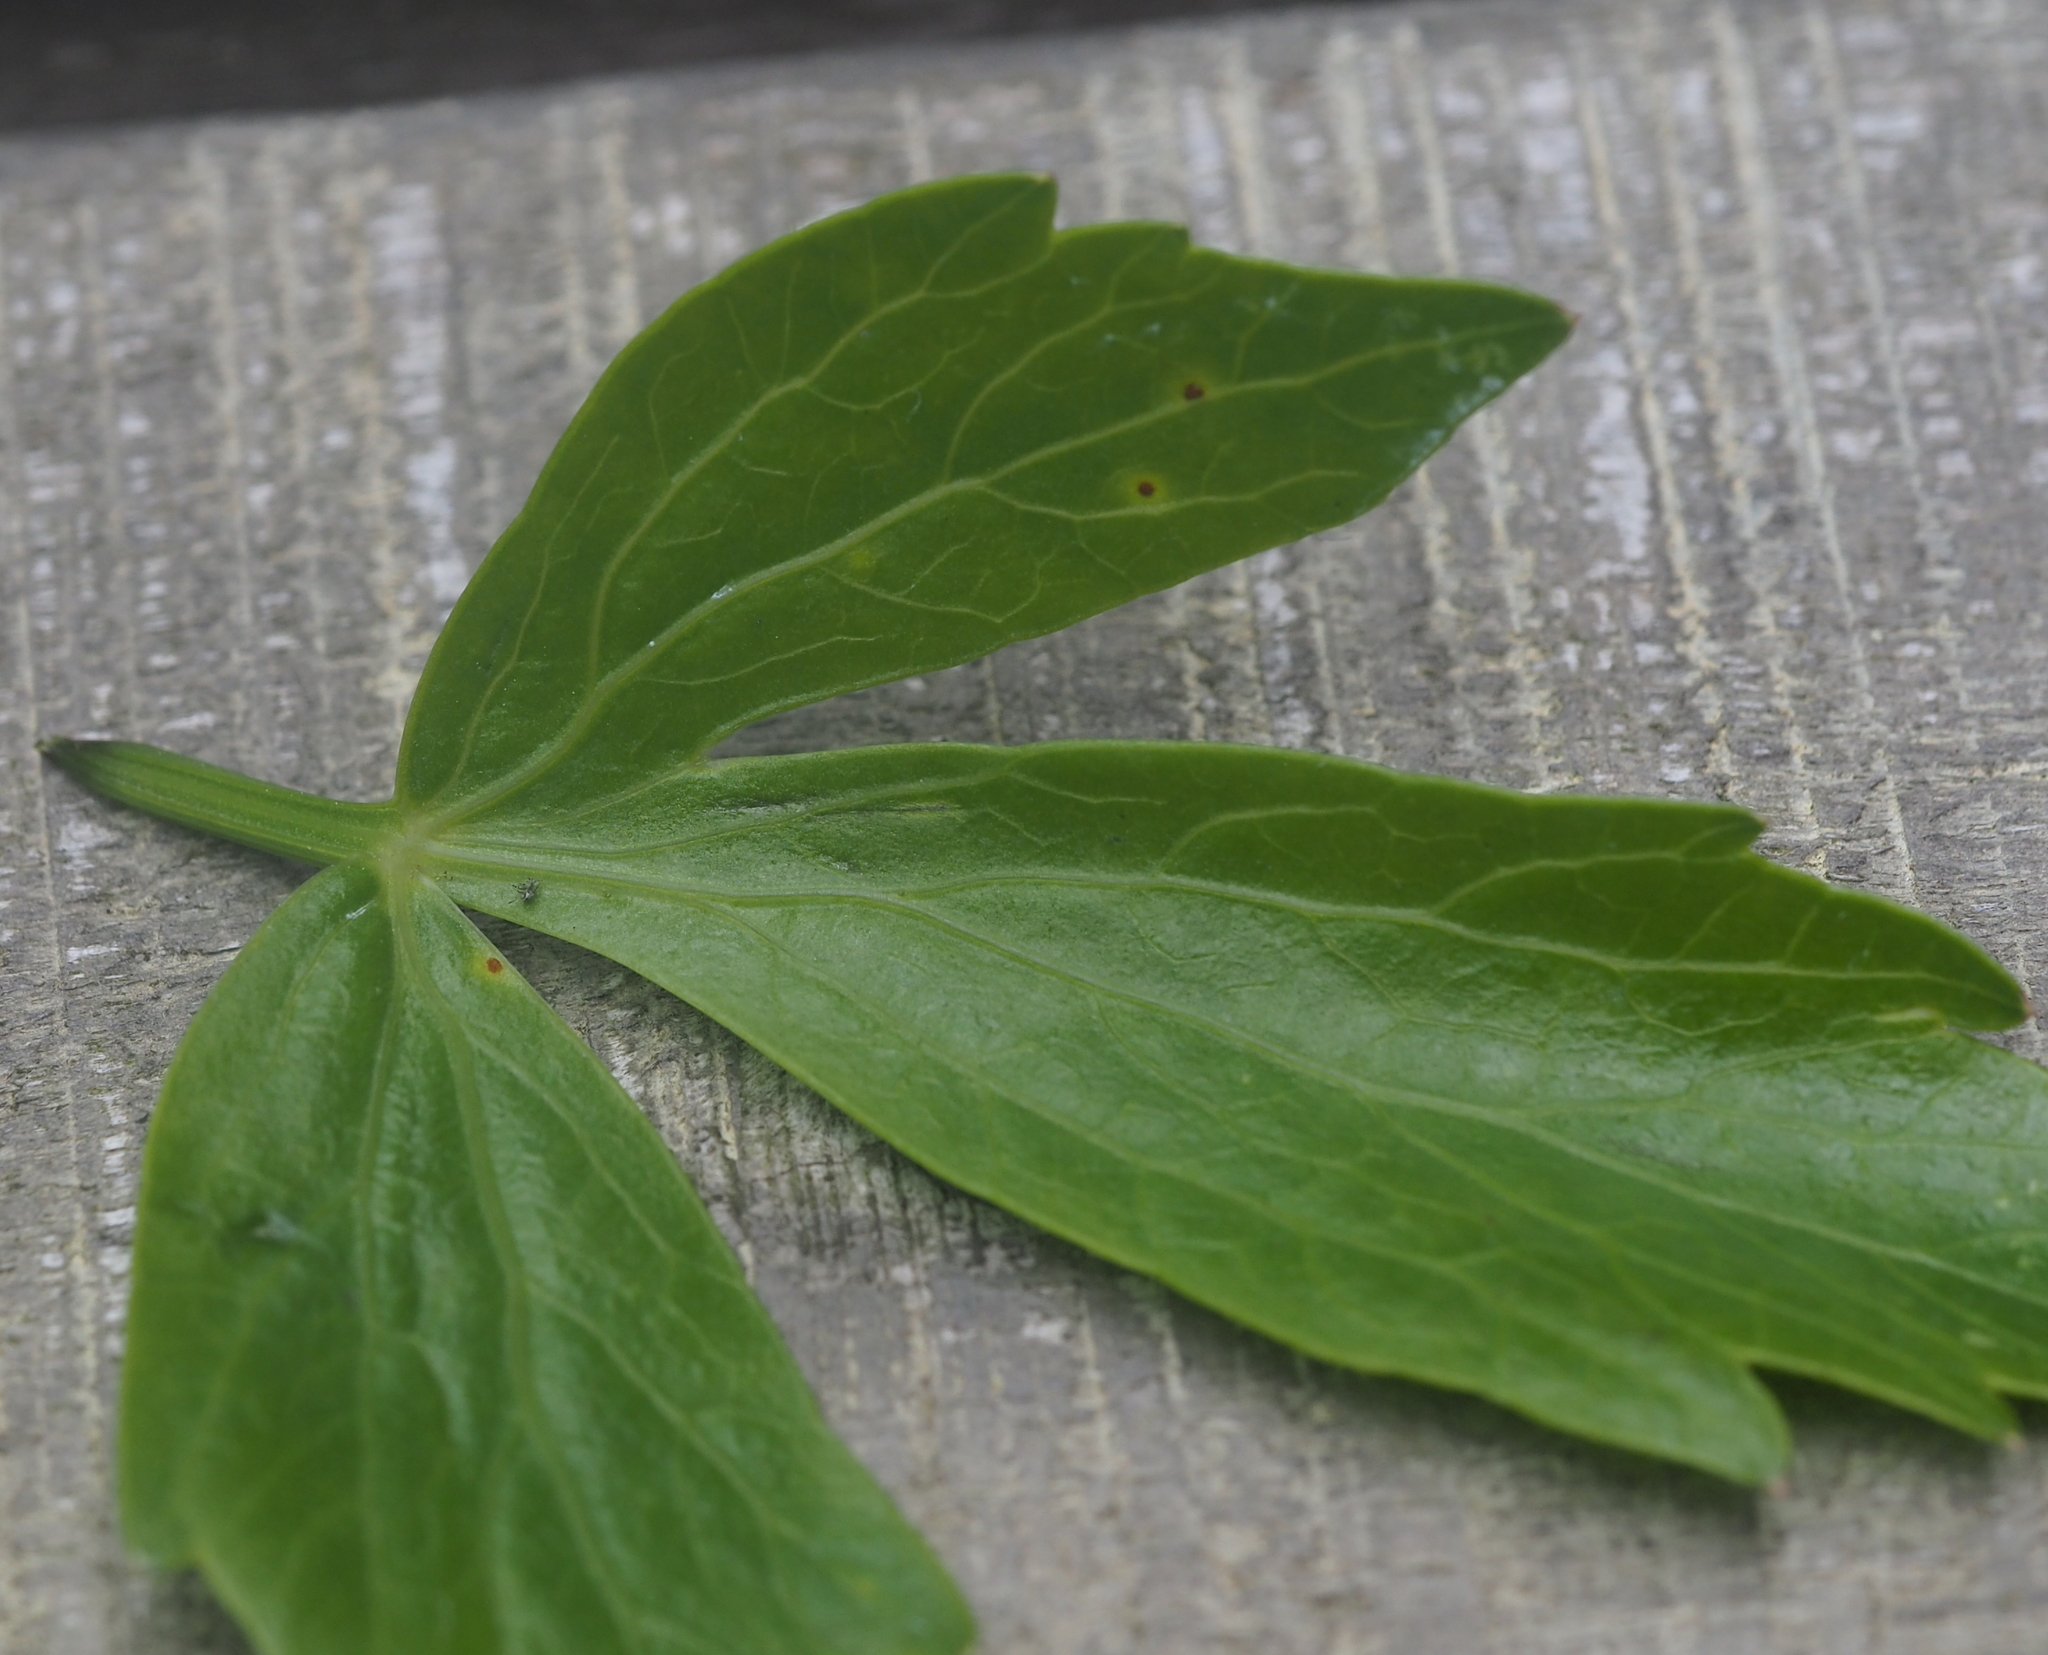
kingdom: Fungi
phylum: Basidiomycota
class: Pucciniomycetes
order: Pucciniales
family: Pucciniaceae
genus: Puccinia
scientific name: Puccinia bornmuelleri
